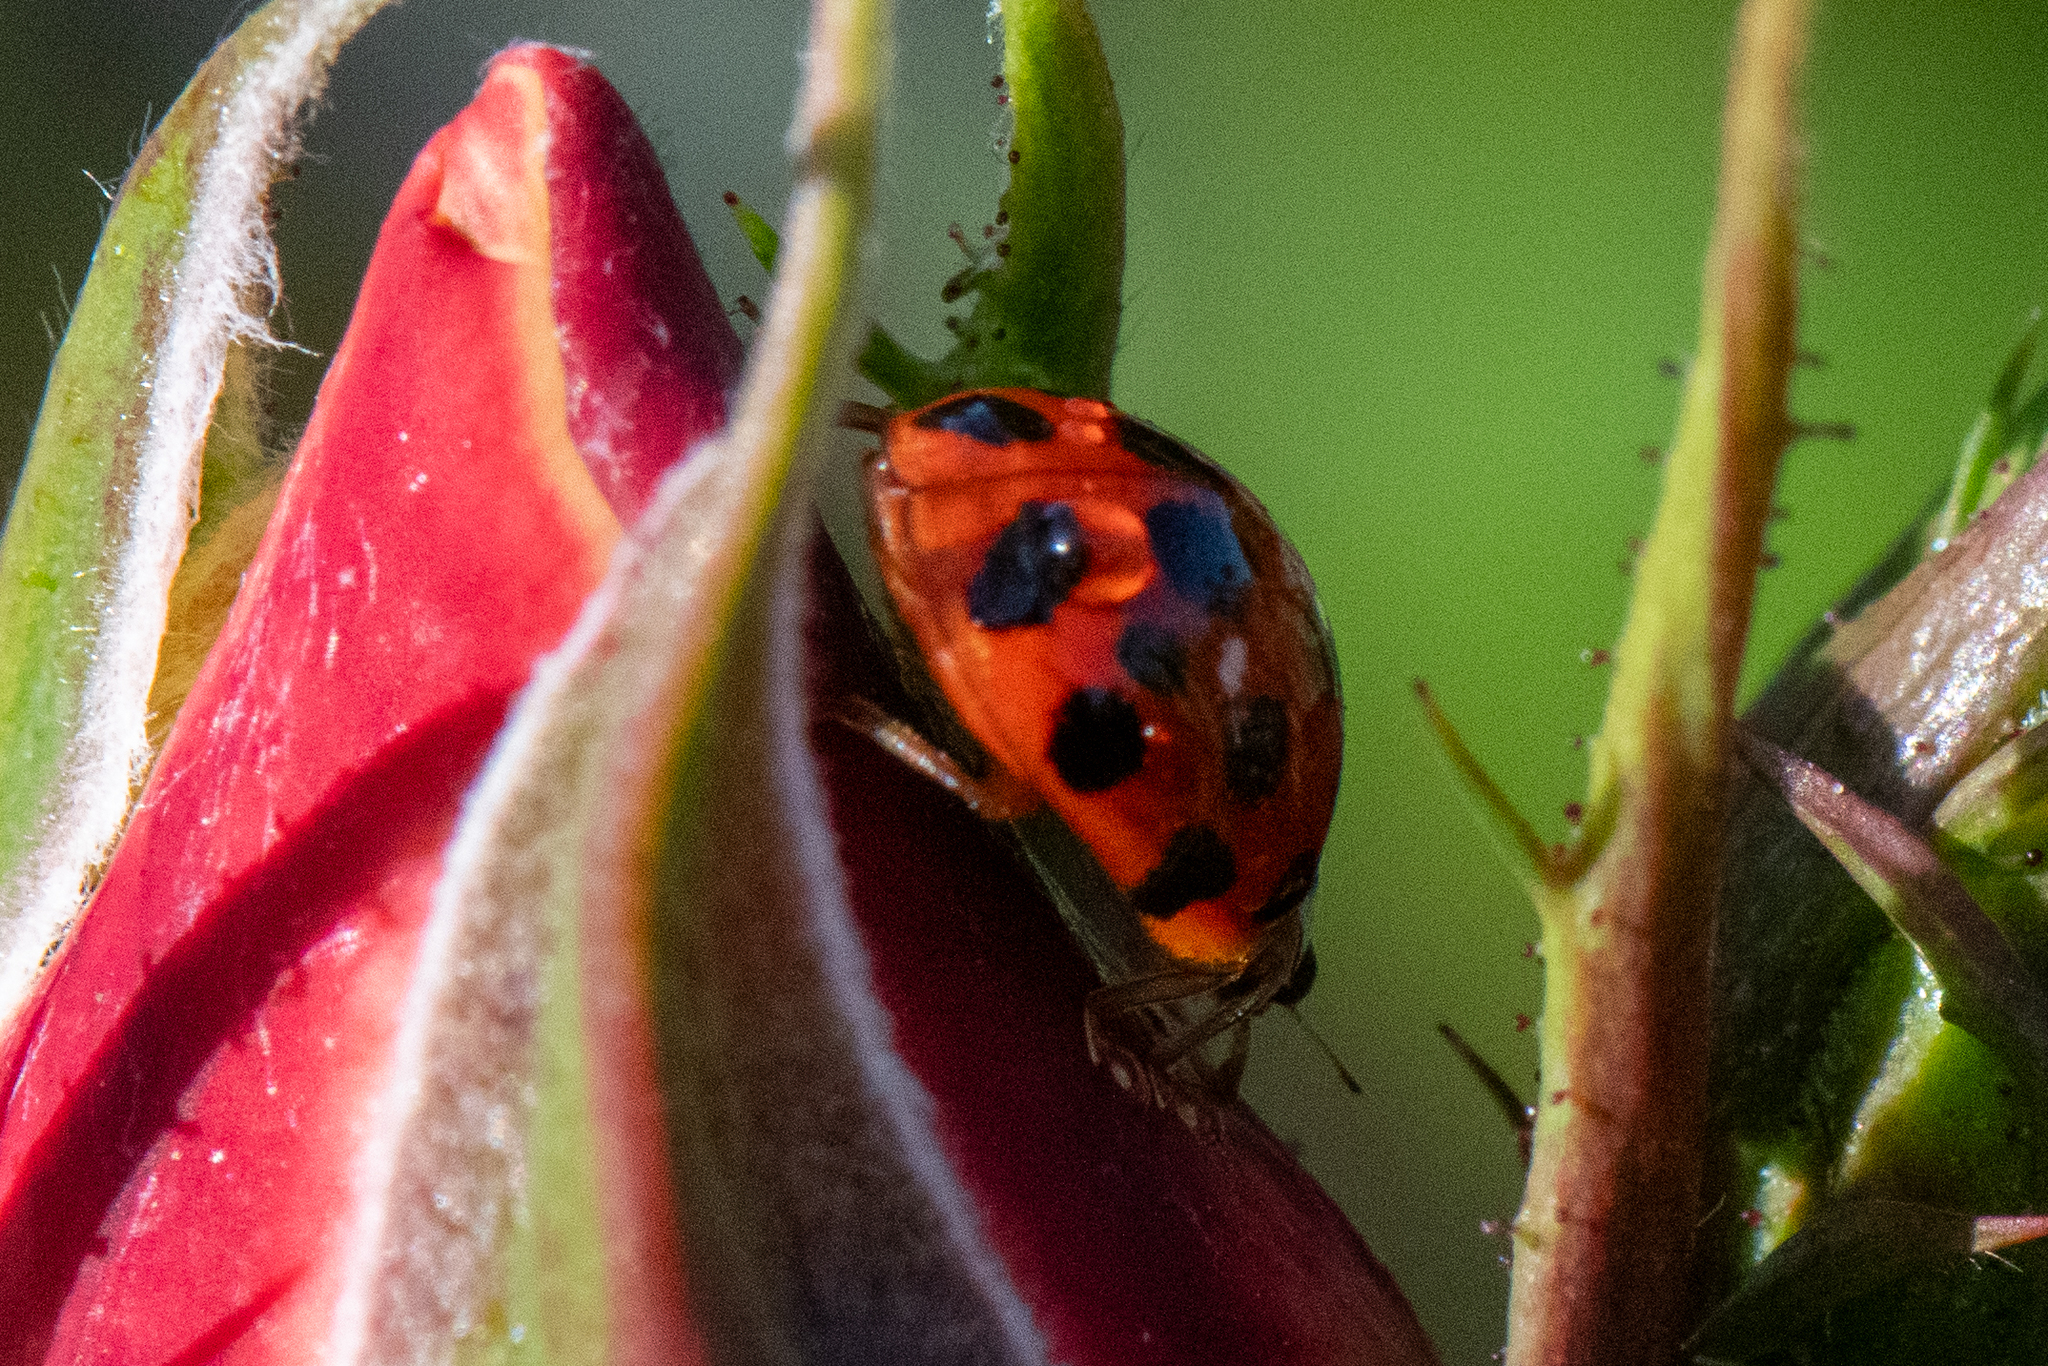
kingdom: Animalia
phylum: Arthropoda
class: Insecta
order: Coleoptera
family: Coccinellidae
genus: Harmonia
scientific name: Harmonia axyridis
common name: Harlequin ladybird
